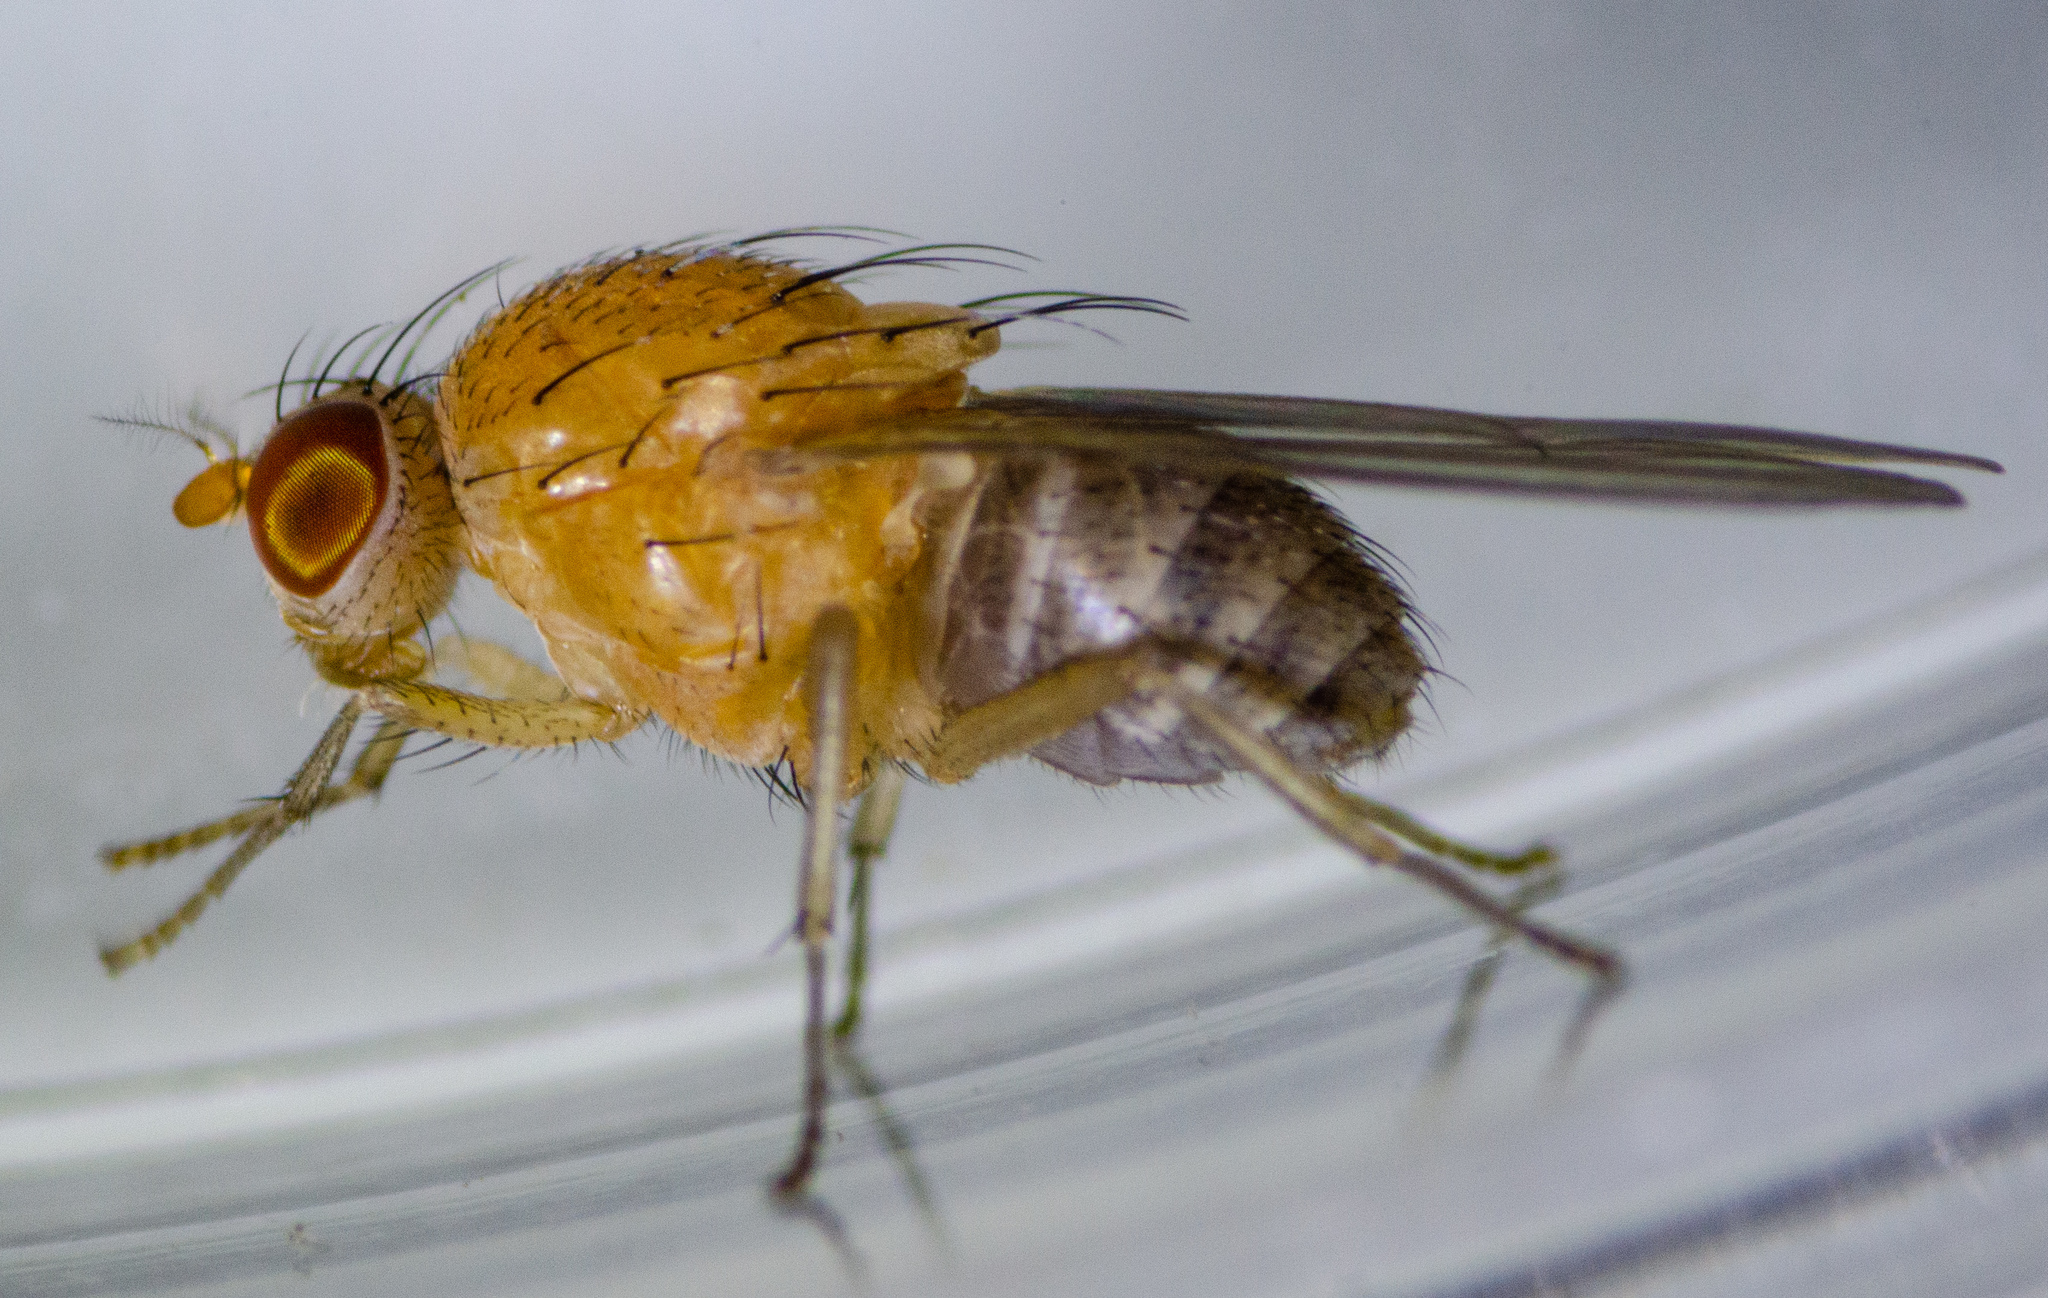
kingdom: Animalia
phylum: Arthropoda
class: Insecta
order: Diptera
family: Lauxaniidae
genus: Minettia
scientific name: Minettia flaveola
